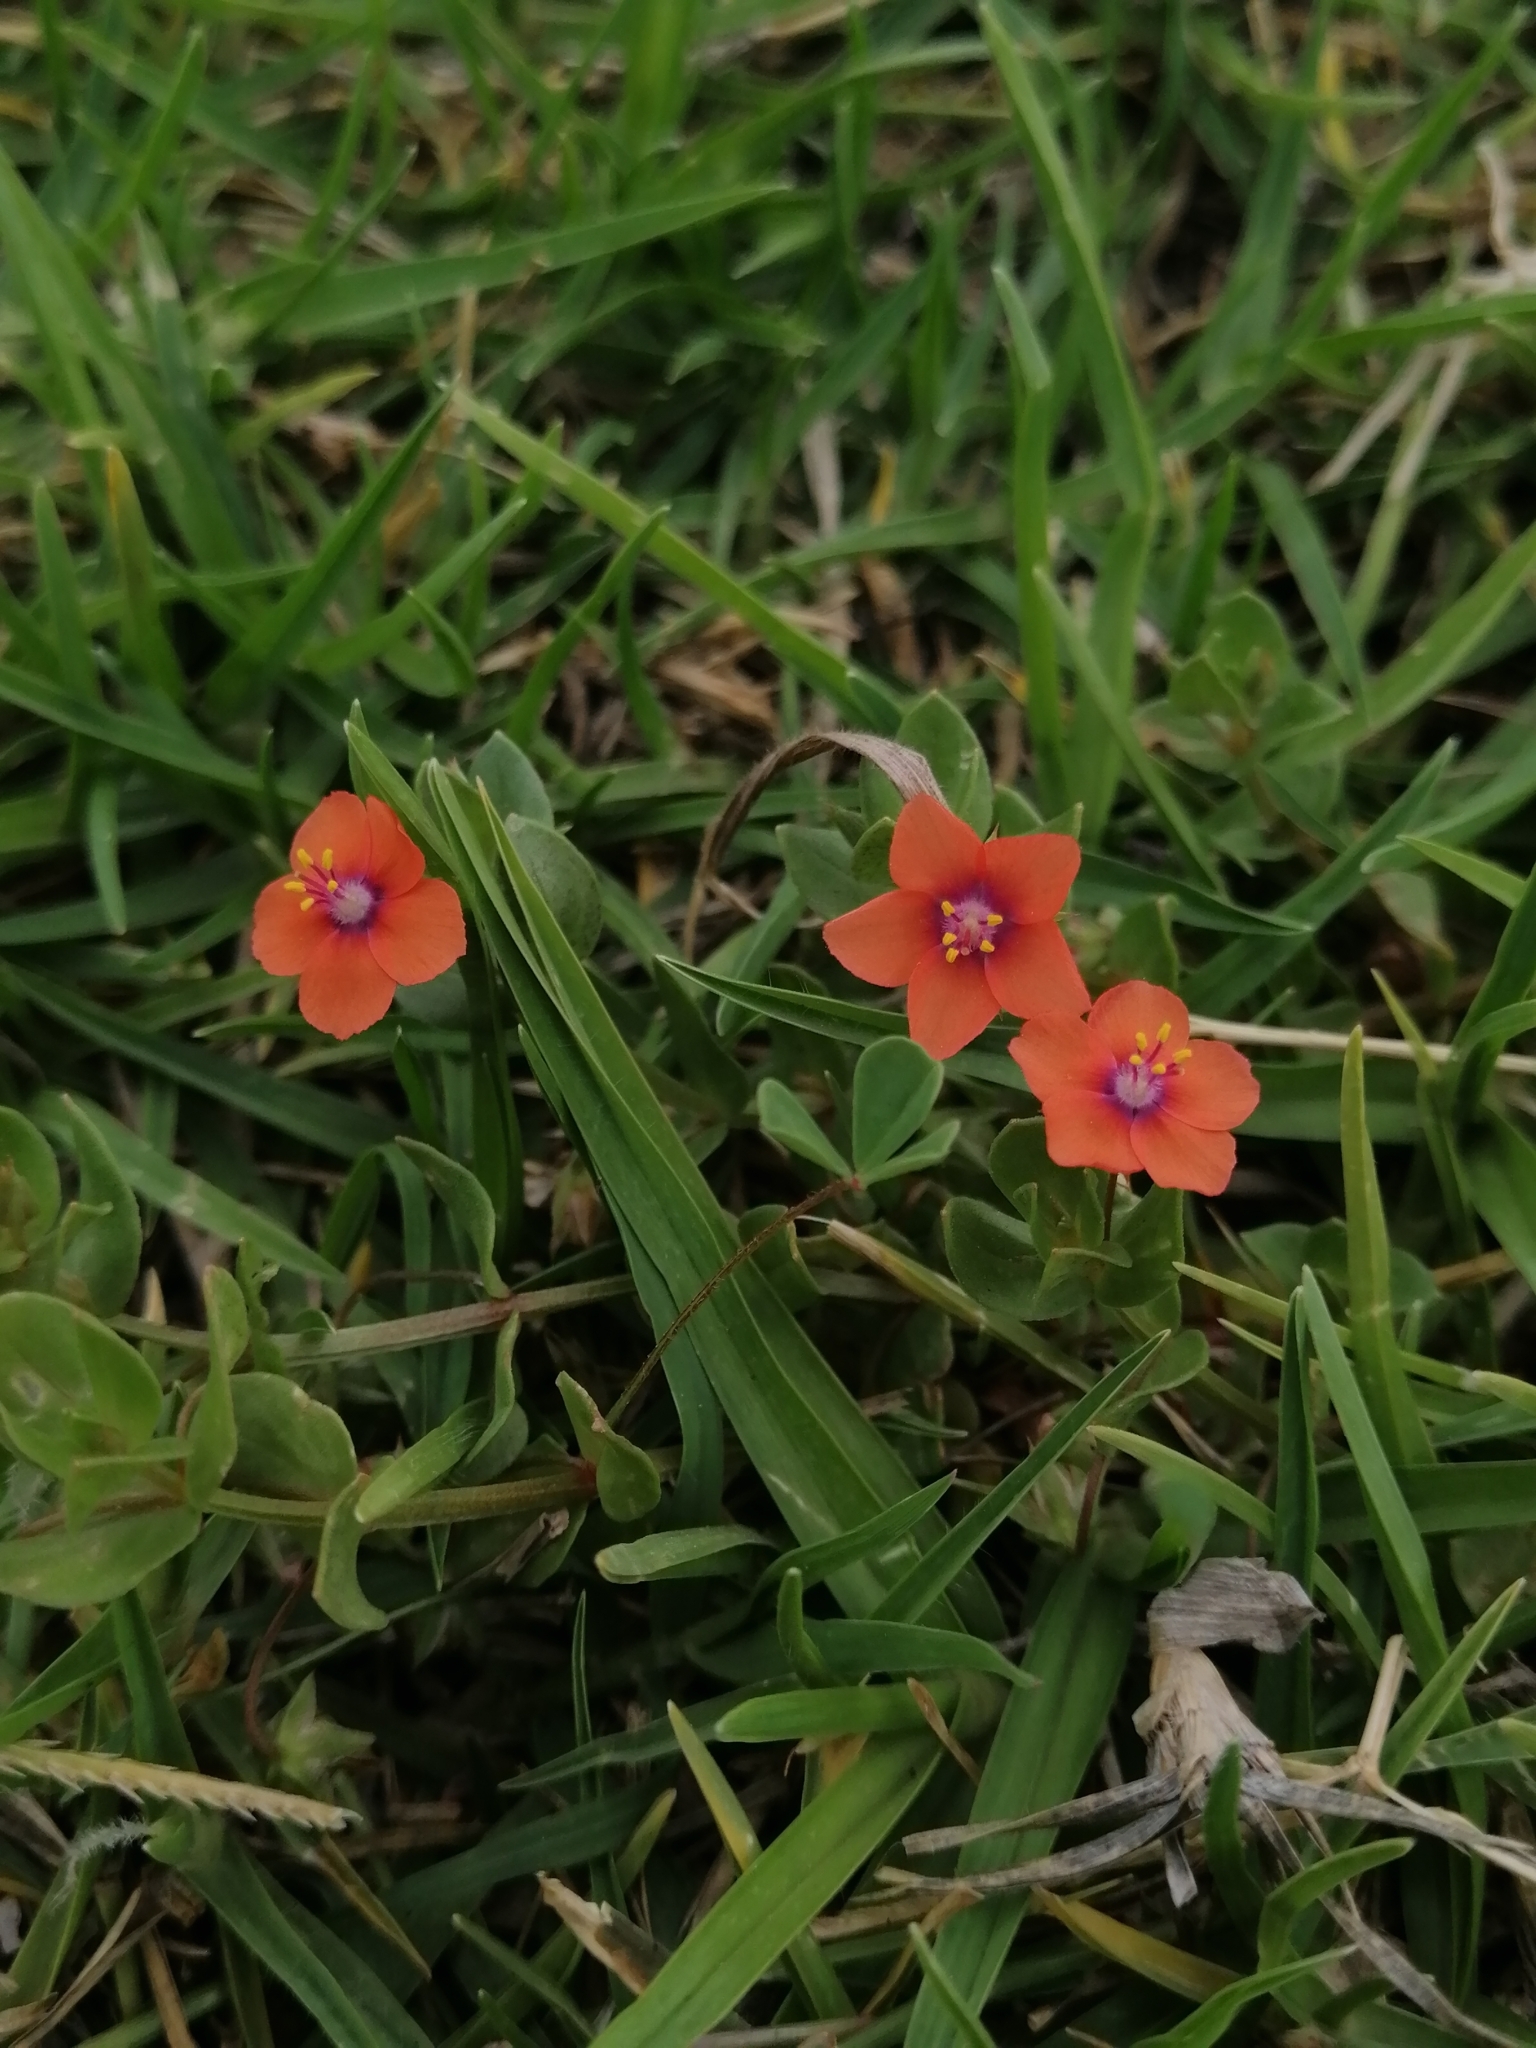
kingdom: Plantae
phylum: Tracheophyta
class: Magnoliopsida
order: Ericales
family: Primulaceae
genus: Lysimachia
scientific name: Lysimachia arvensis
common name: Scarlet pimpernel
